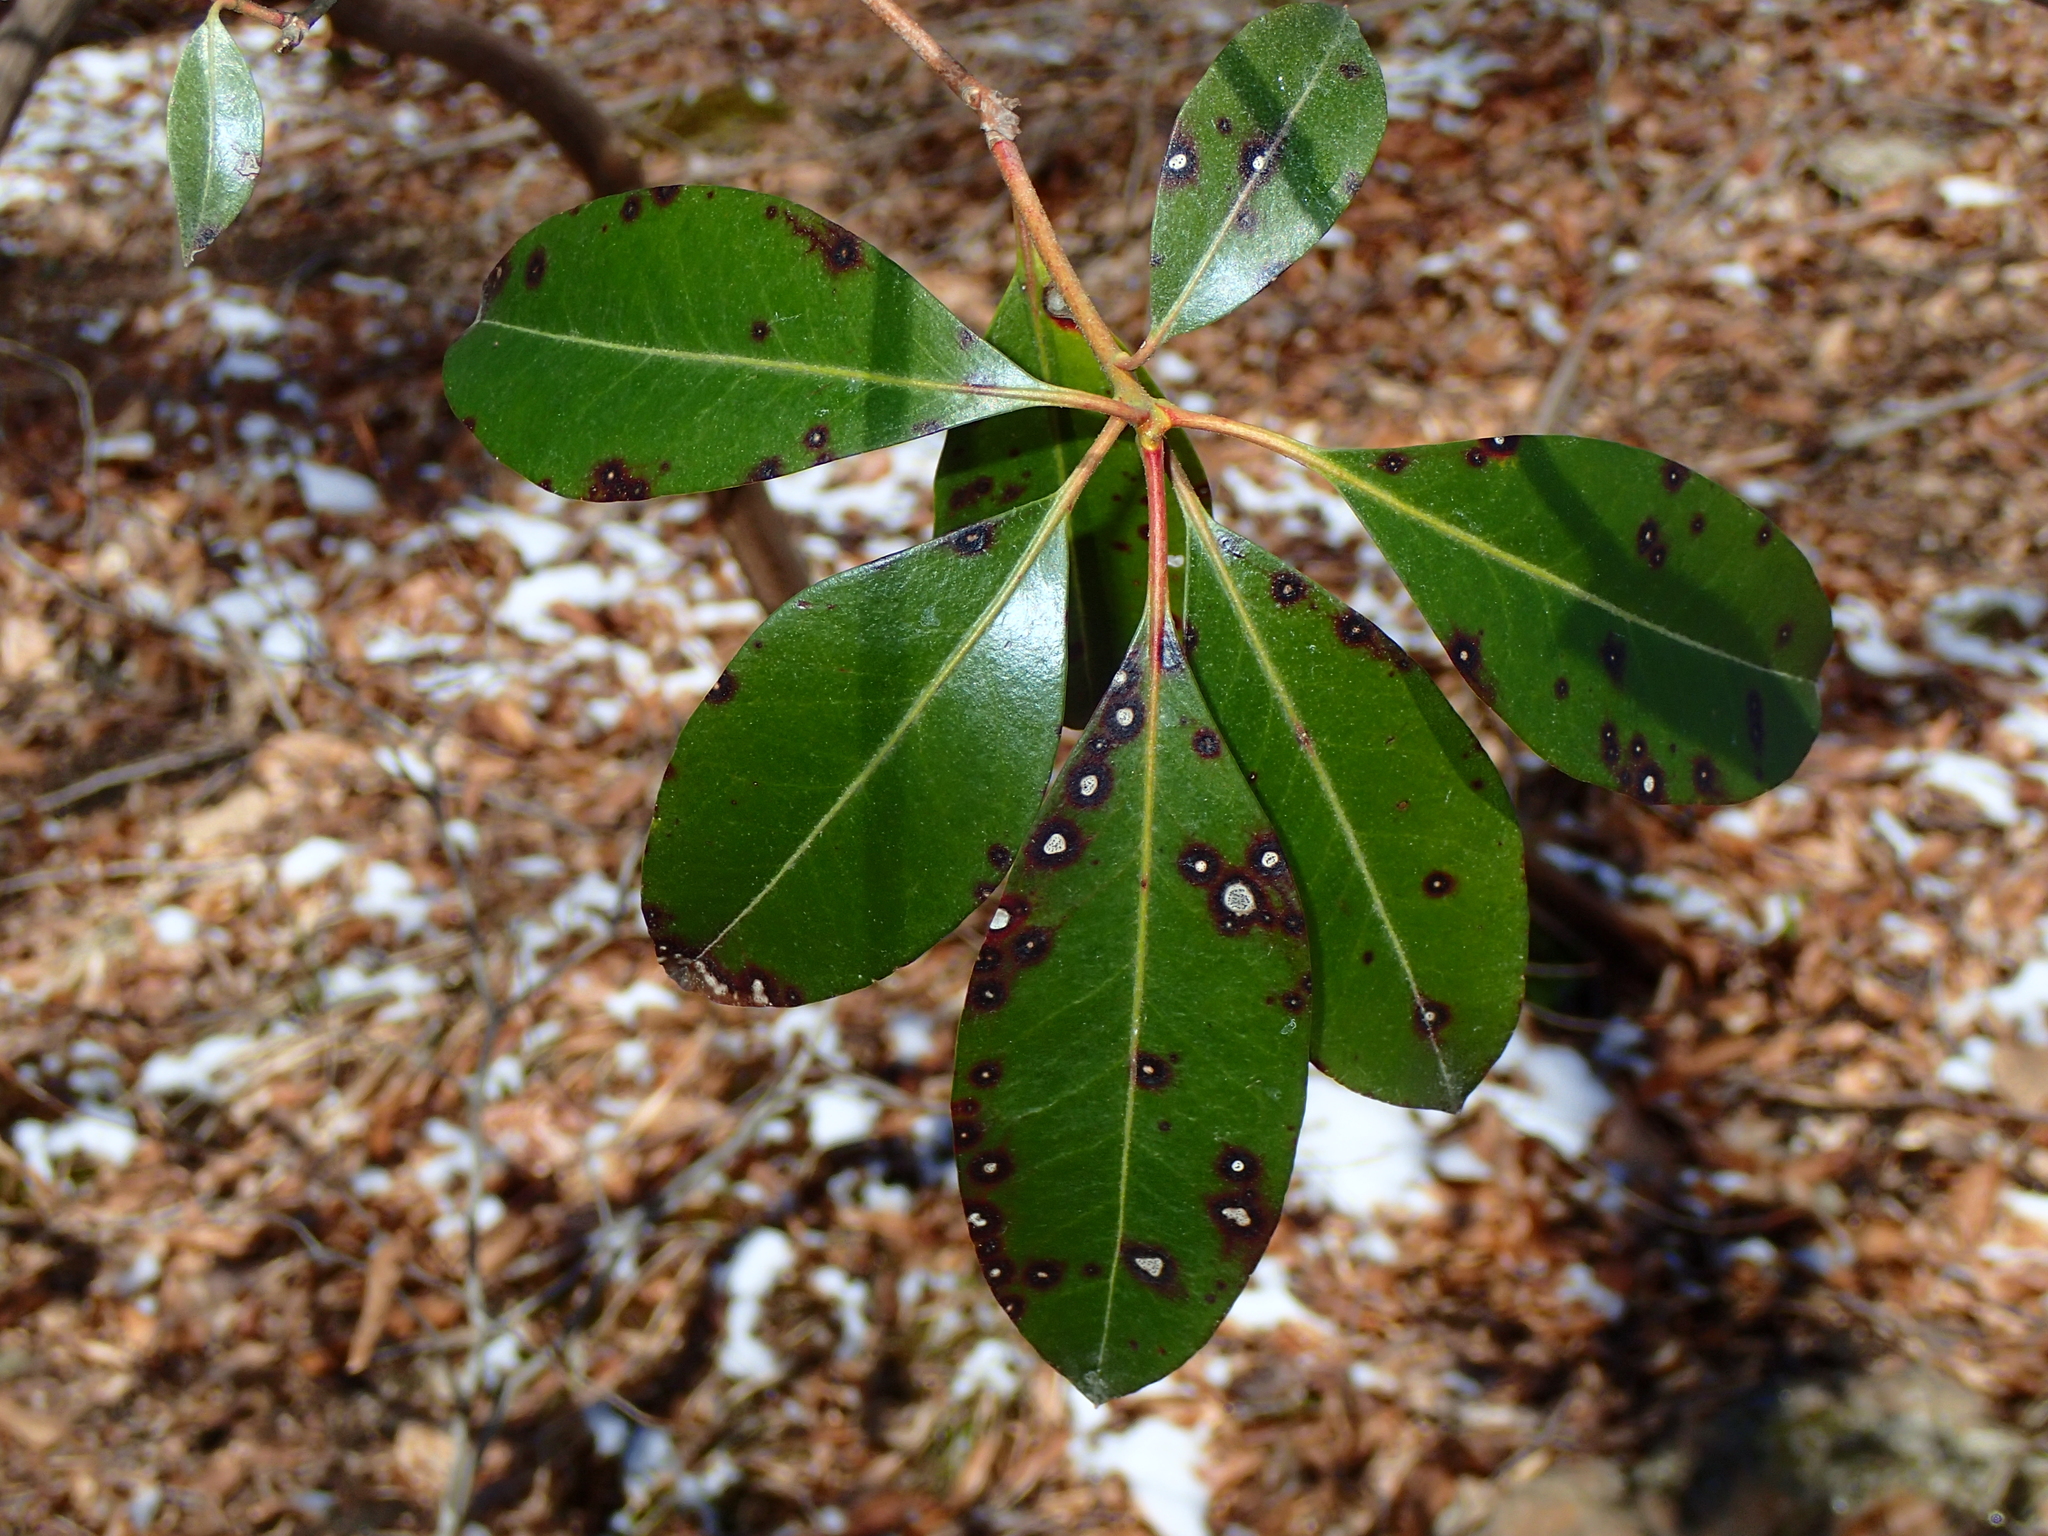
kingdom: Plantae
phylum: Tracheophyta
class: Magnoliopsida
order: Ericales
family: Ericaceae
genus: Kalmia
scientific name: Kalmia latifolia
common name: Mountain-laurel
